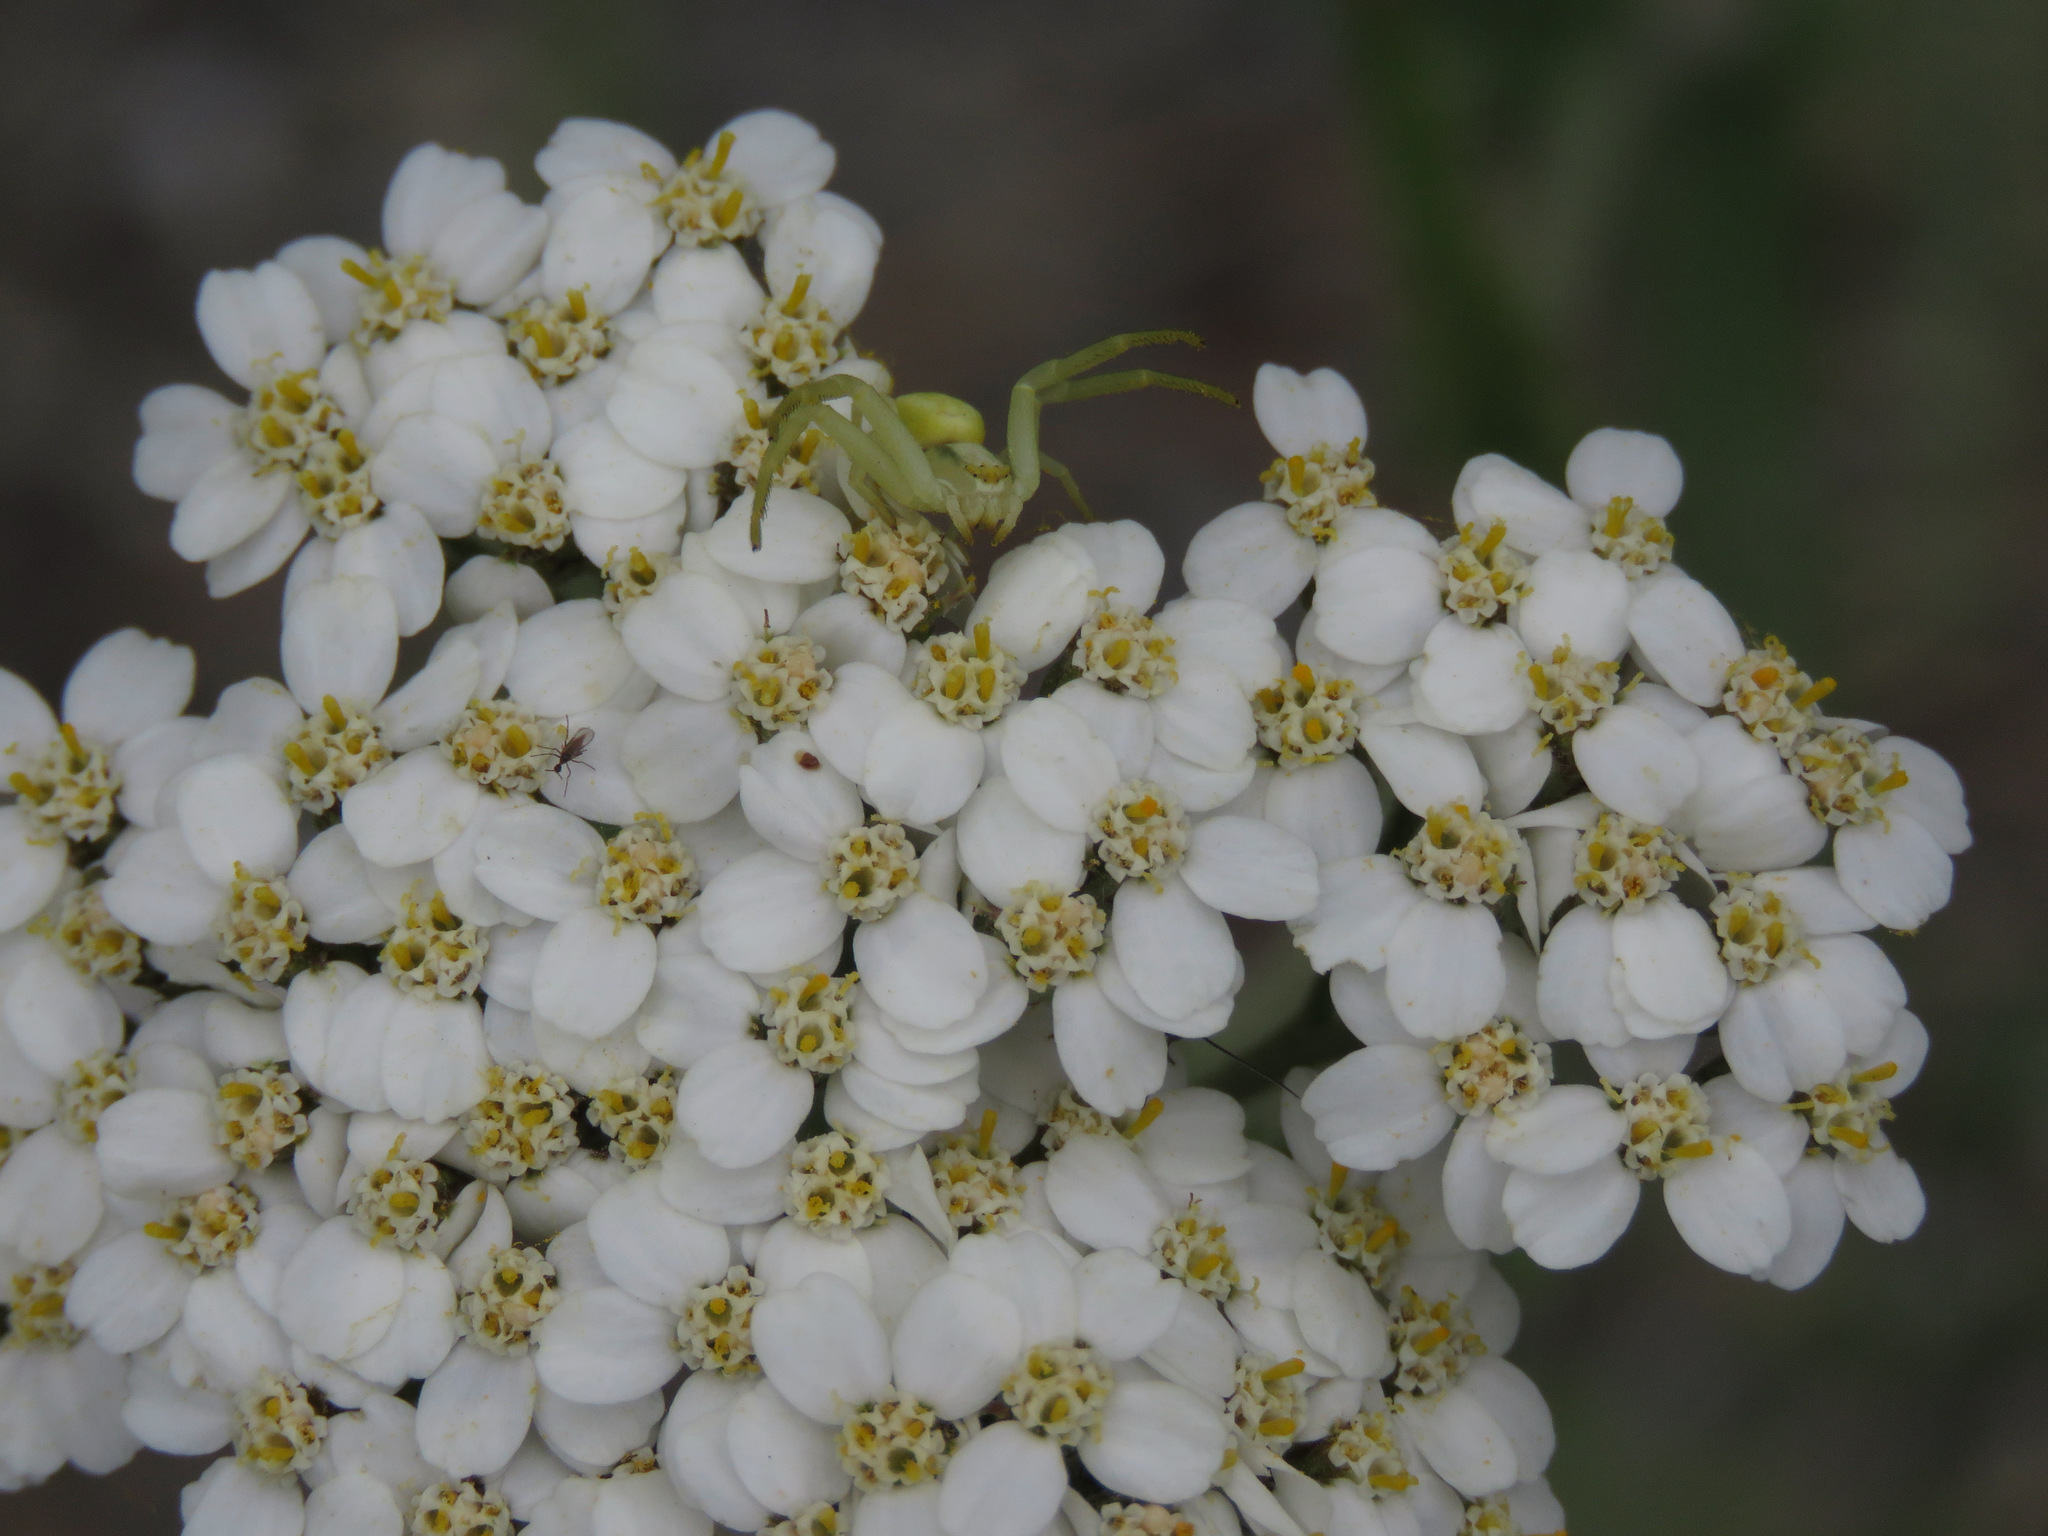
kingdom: Animalia
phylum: Arthropoda
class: Arachnida
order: Araneae
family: Thomisidae
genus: Misumena
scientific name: Misumena vatia
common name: Goldenrod crab spider
